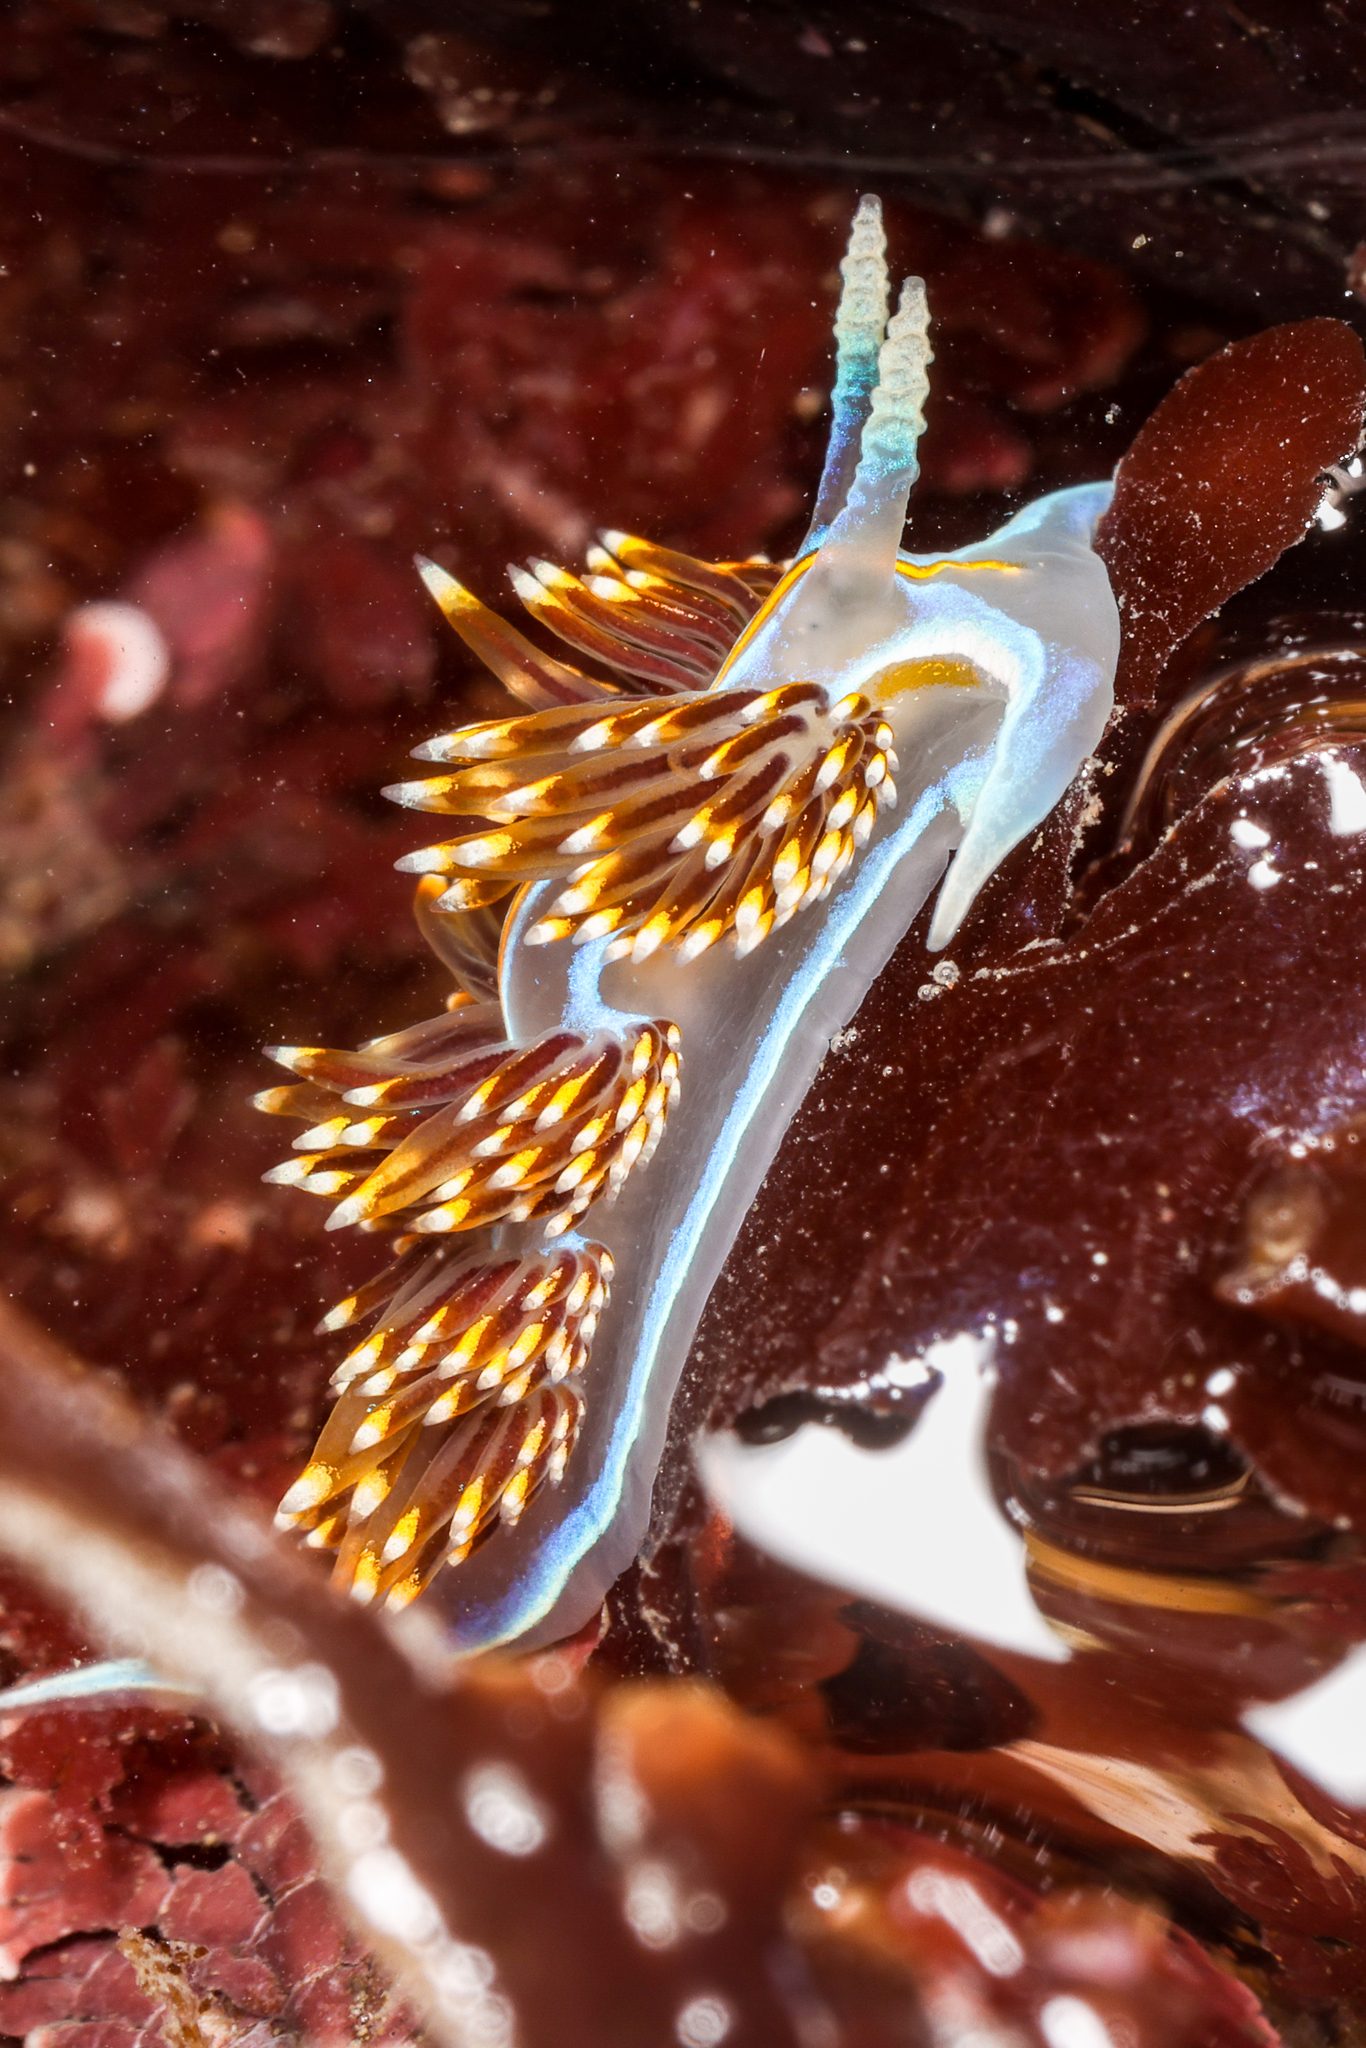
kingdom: Animalia
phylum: Mollusca
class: Gastropoda
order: Nudibranchia
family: Myrrhinidae
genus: Hermissenda
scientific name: Hermissenda opalescens
